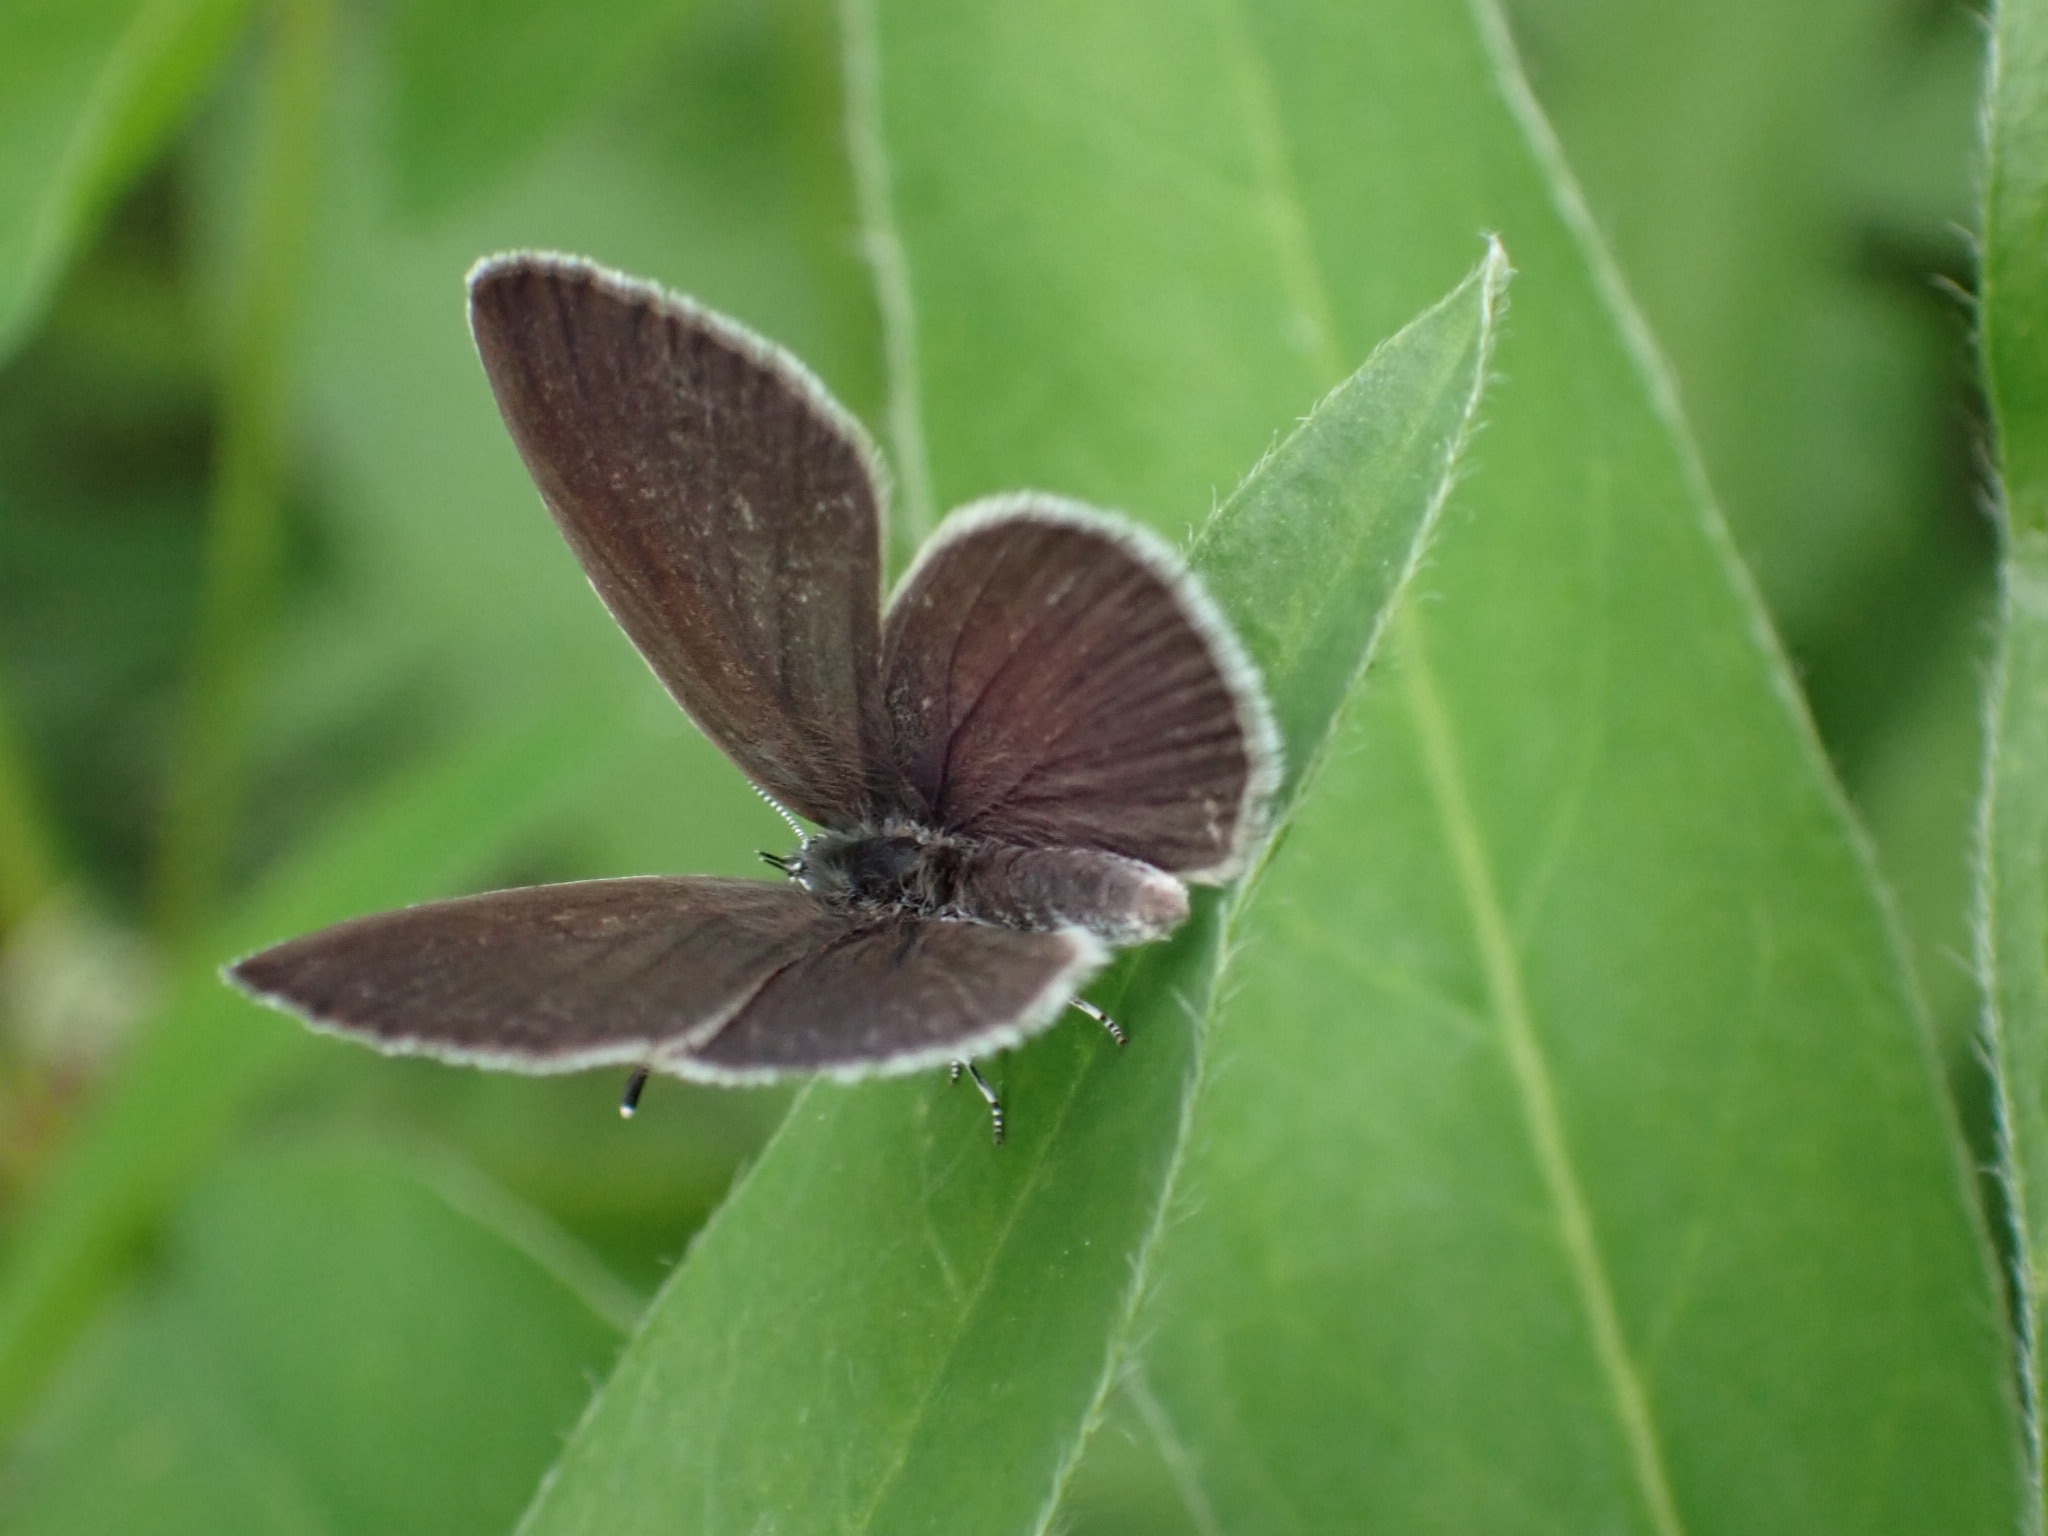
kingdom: Animalia
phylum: Arthropoda
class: Insecta
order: Lepidoptera
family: Lycaenidae
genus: Cupido
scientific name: Cupido minimus
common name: Small blue
